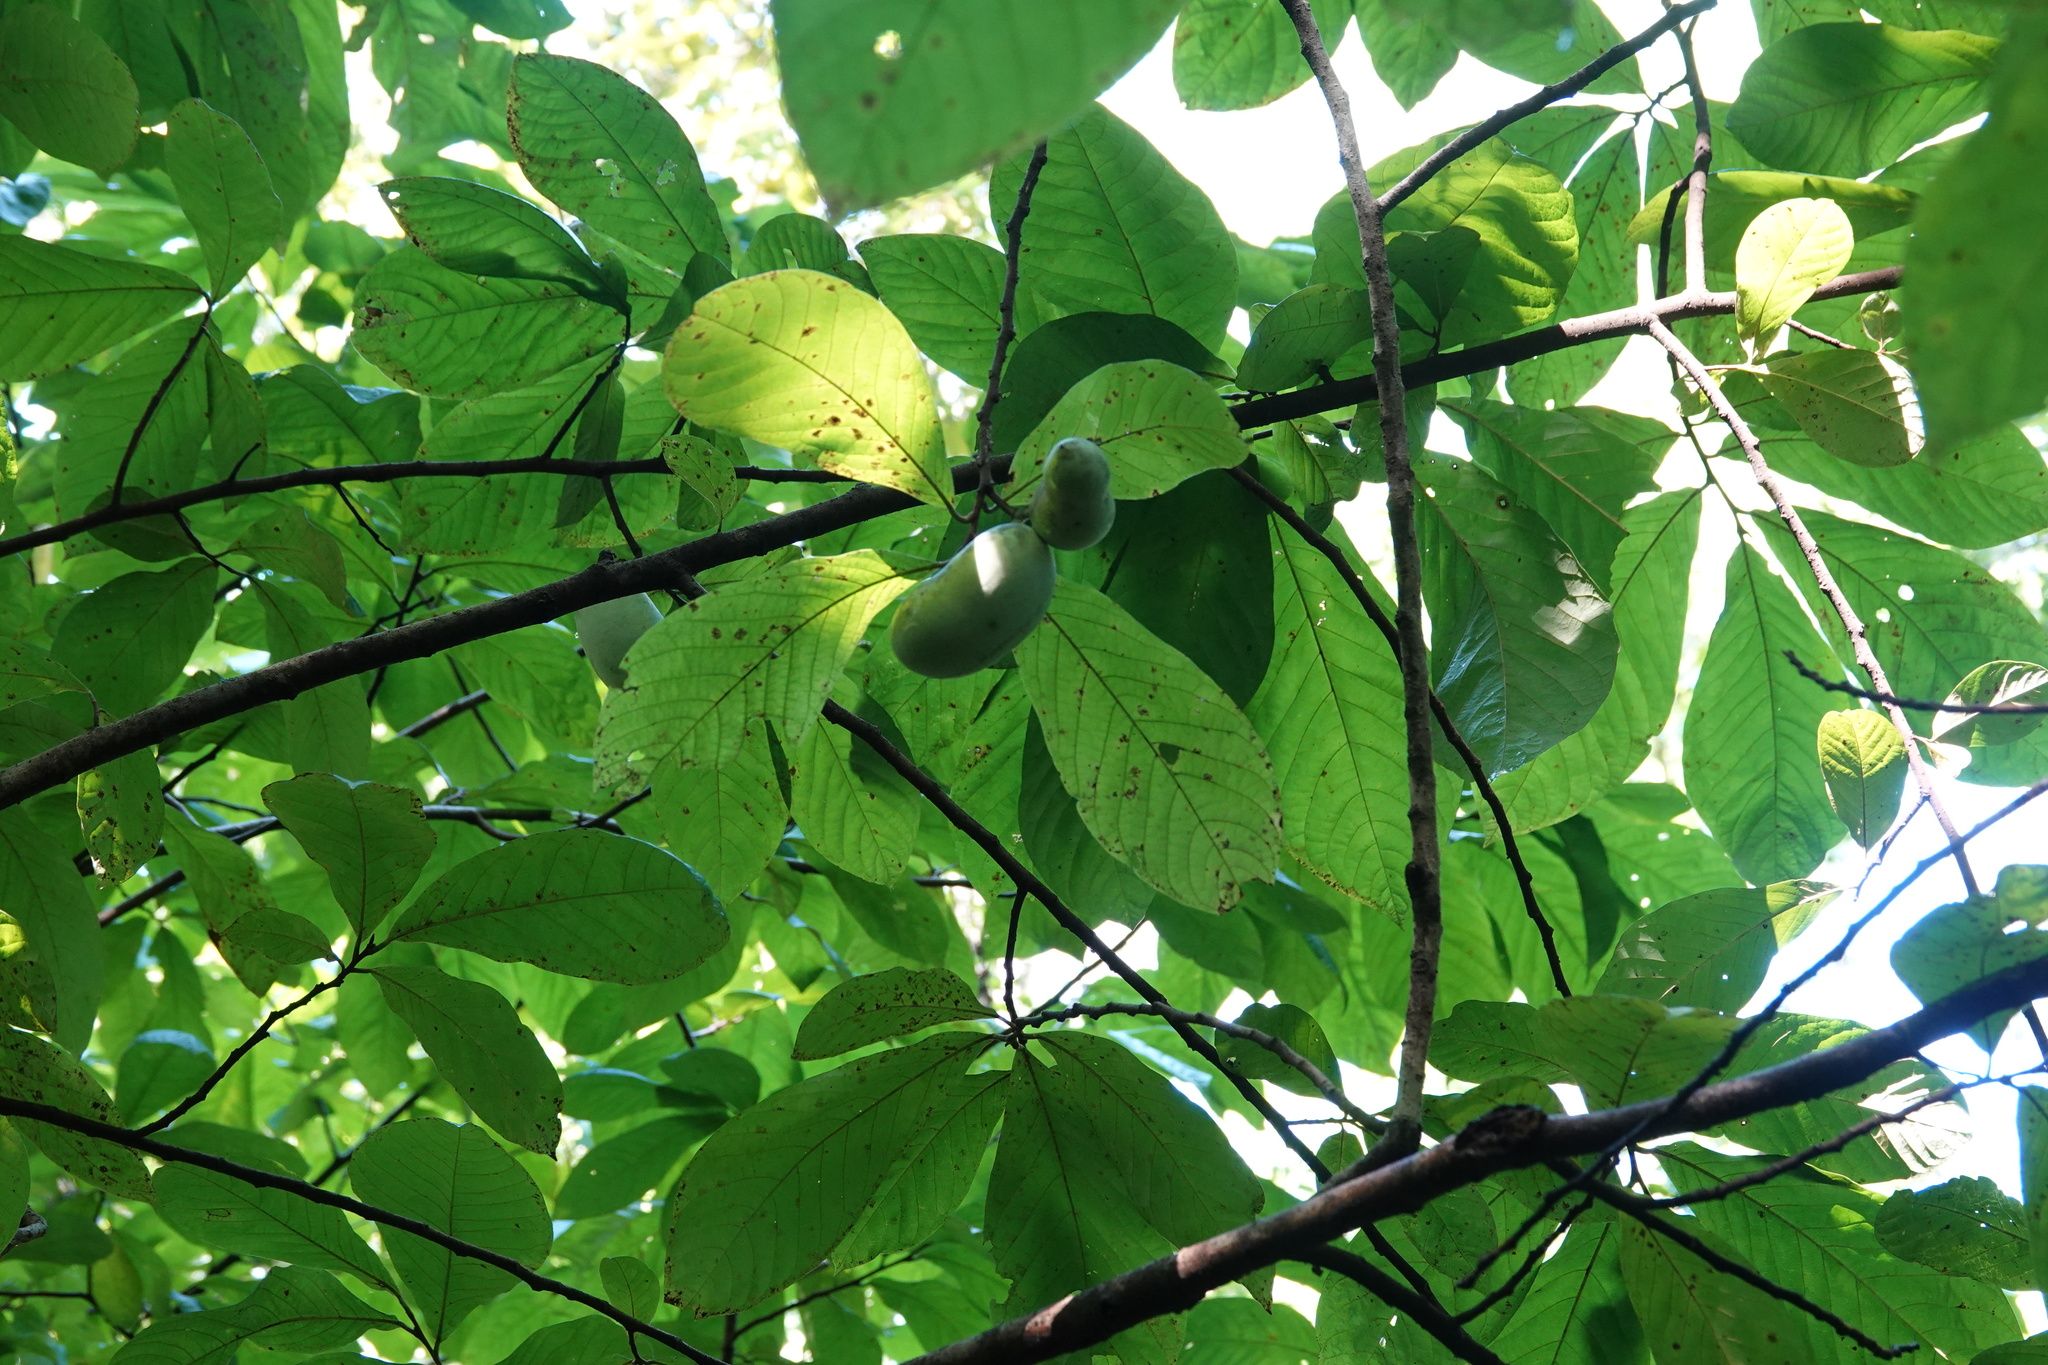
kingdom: Plantae
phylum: Tracheophyta
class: Magnoliopsida
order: Magnoliales
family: Annonaceae
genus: Asimina
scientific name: Asimina triloba
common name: Dog-banana
